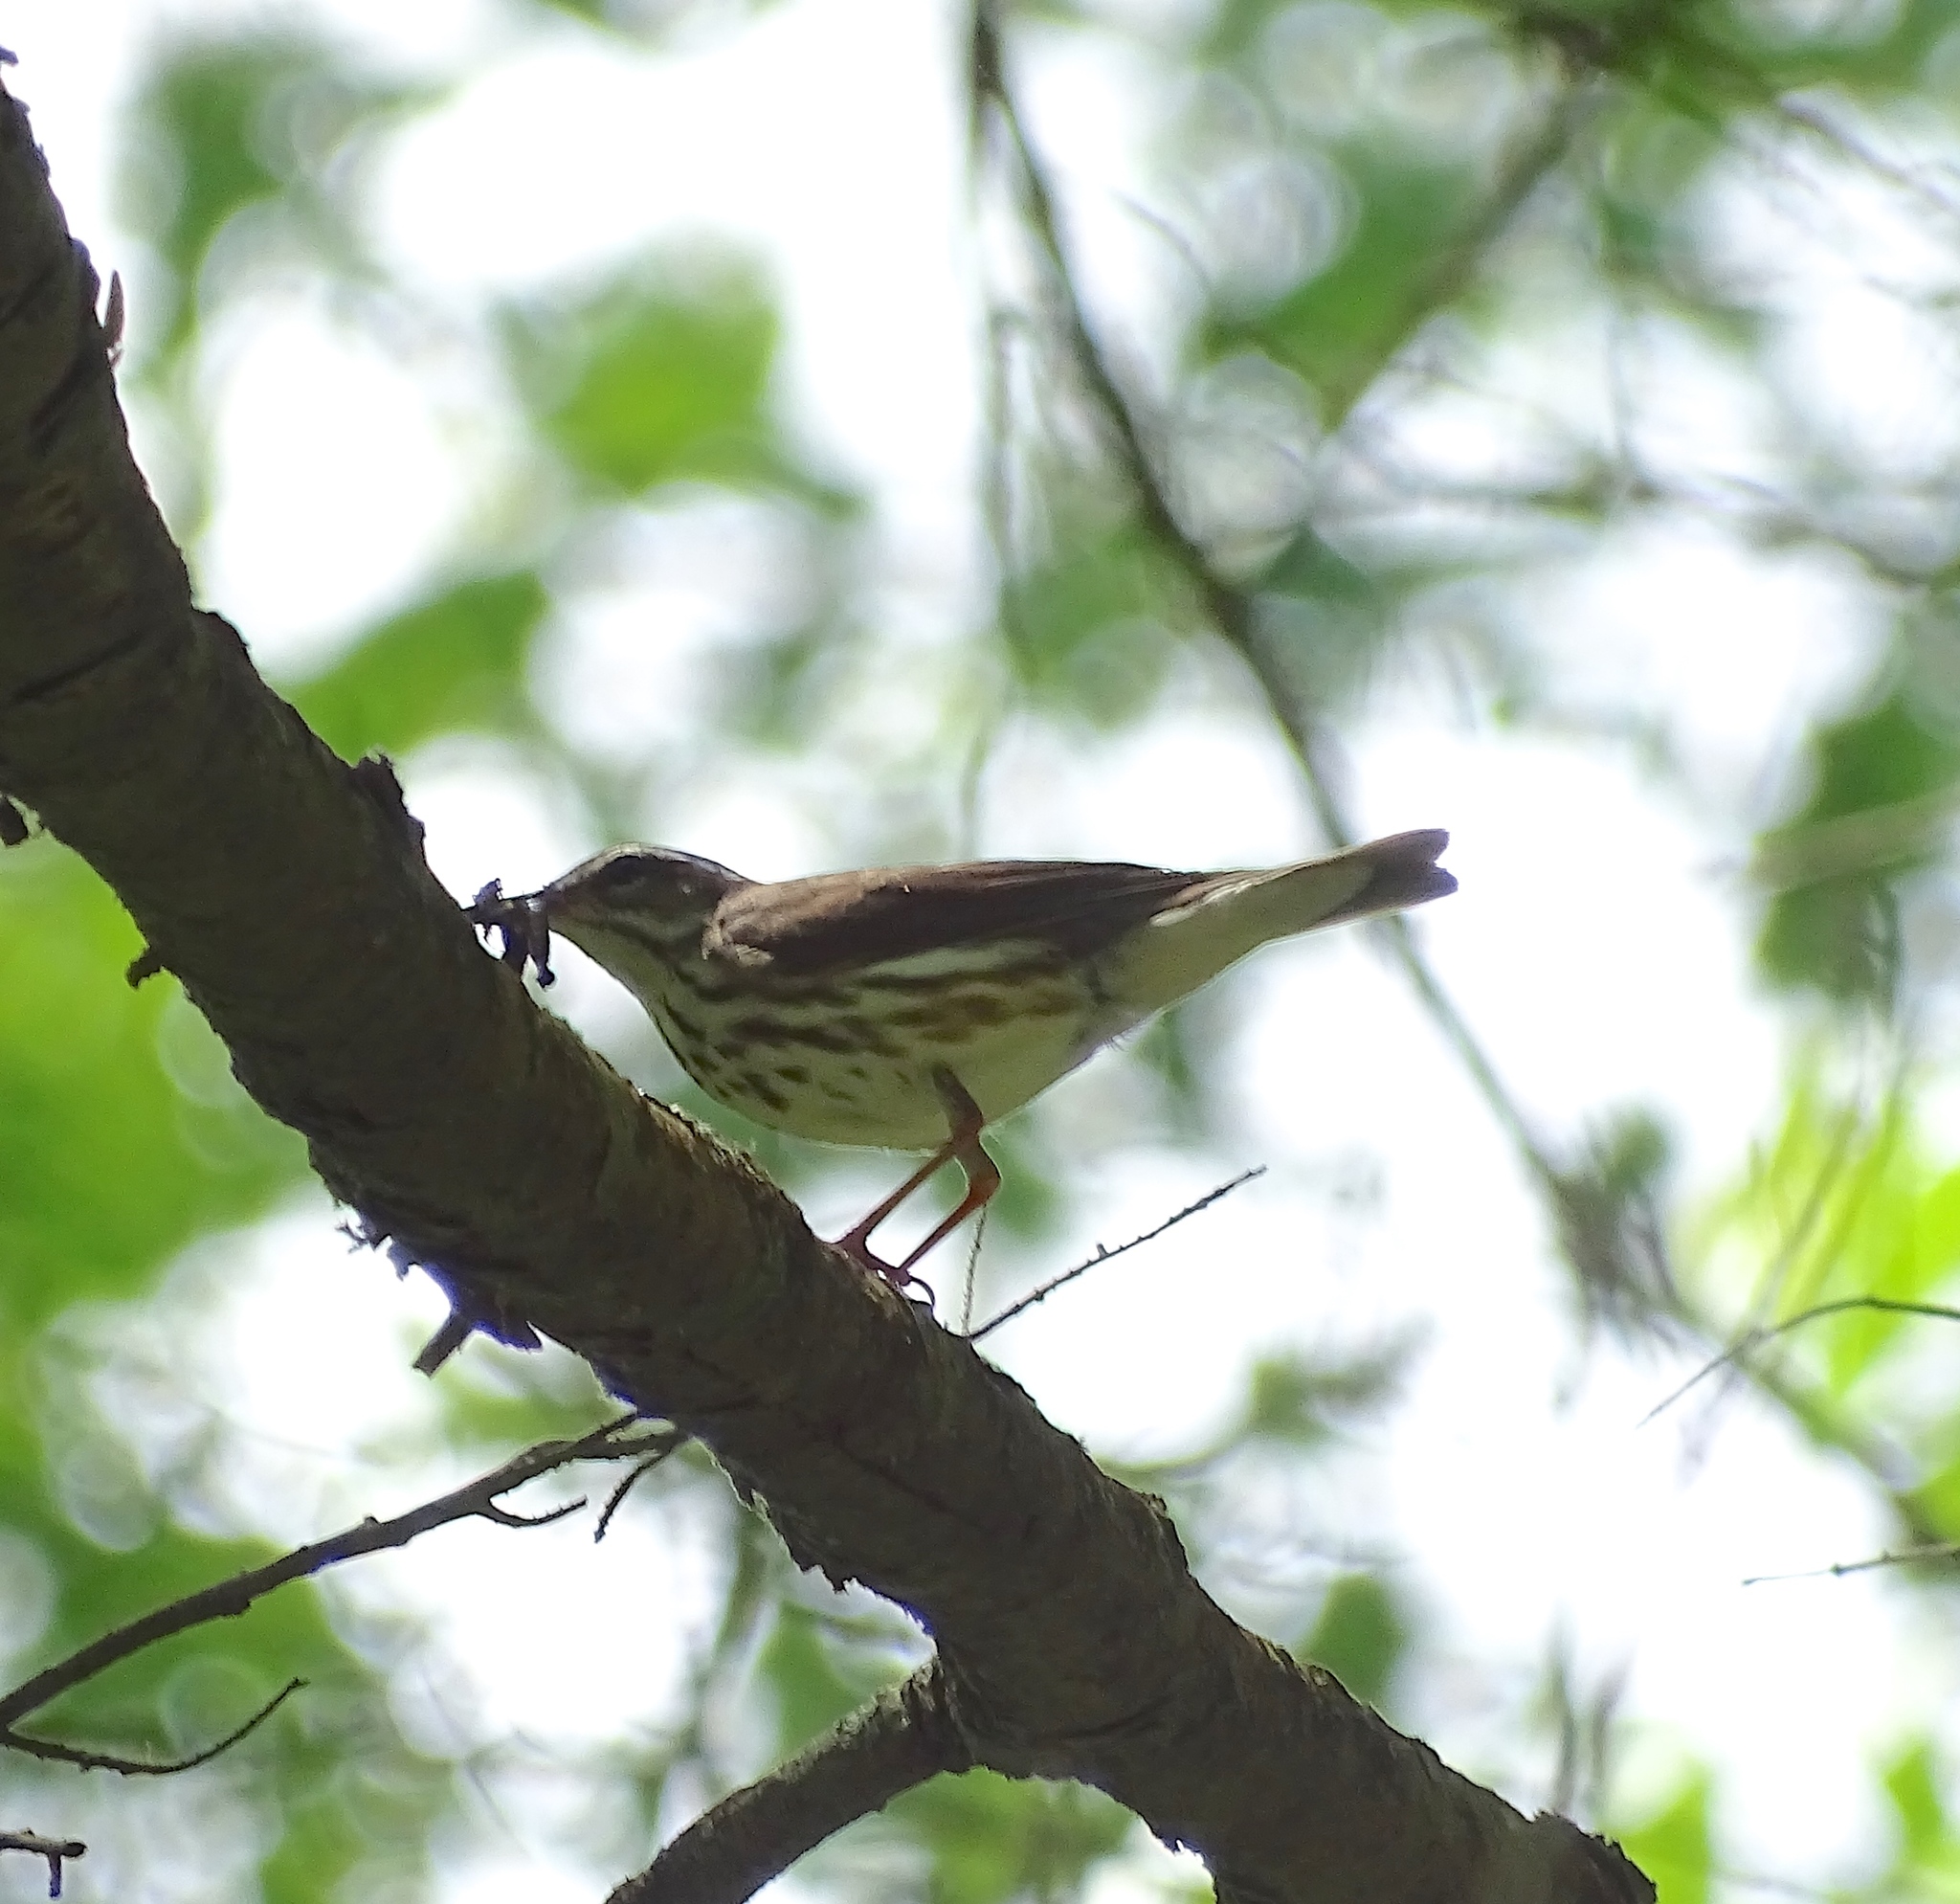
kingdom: Animalia
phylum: Chordata
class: Aves
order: Passeriformes
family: Parulidae
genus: Parkesia
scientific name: Parkesia motacilla
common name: Louisiana waterthrush
